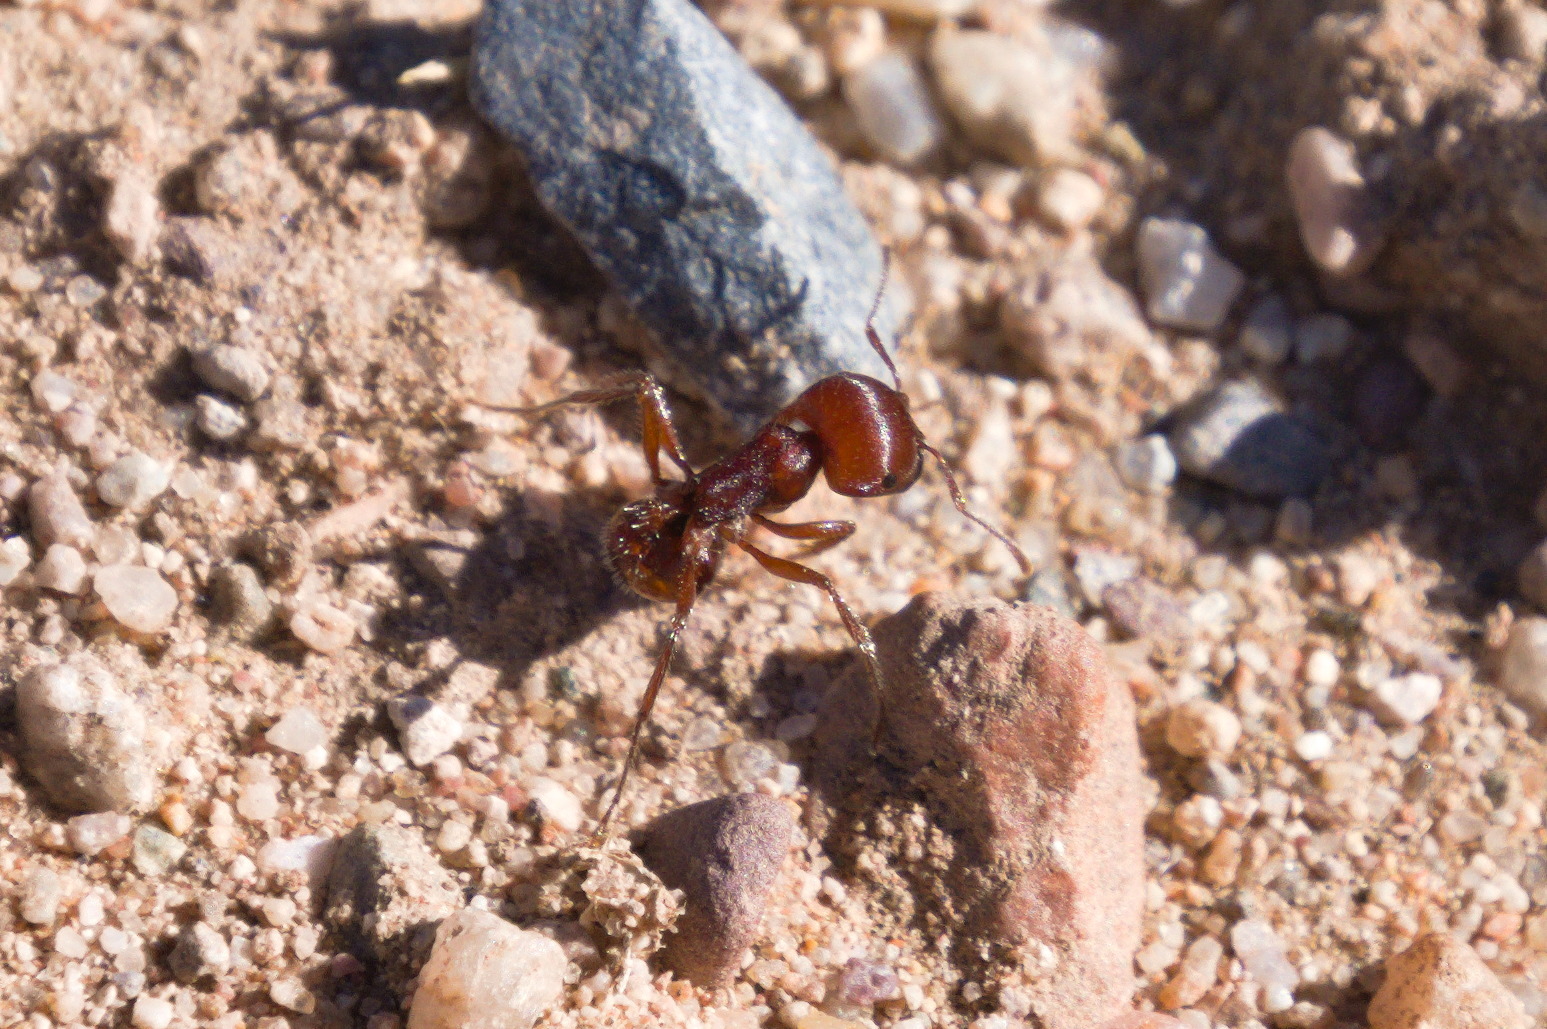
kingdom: Animalia
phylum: Arthropoda
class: Insecta
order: Hymenoptera
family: Formicidae
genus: Pogonomyrmex
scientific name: Pogonomyrmex barbatus
